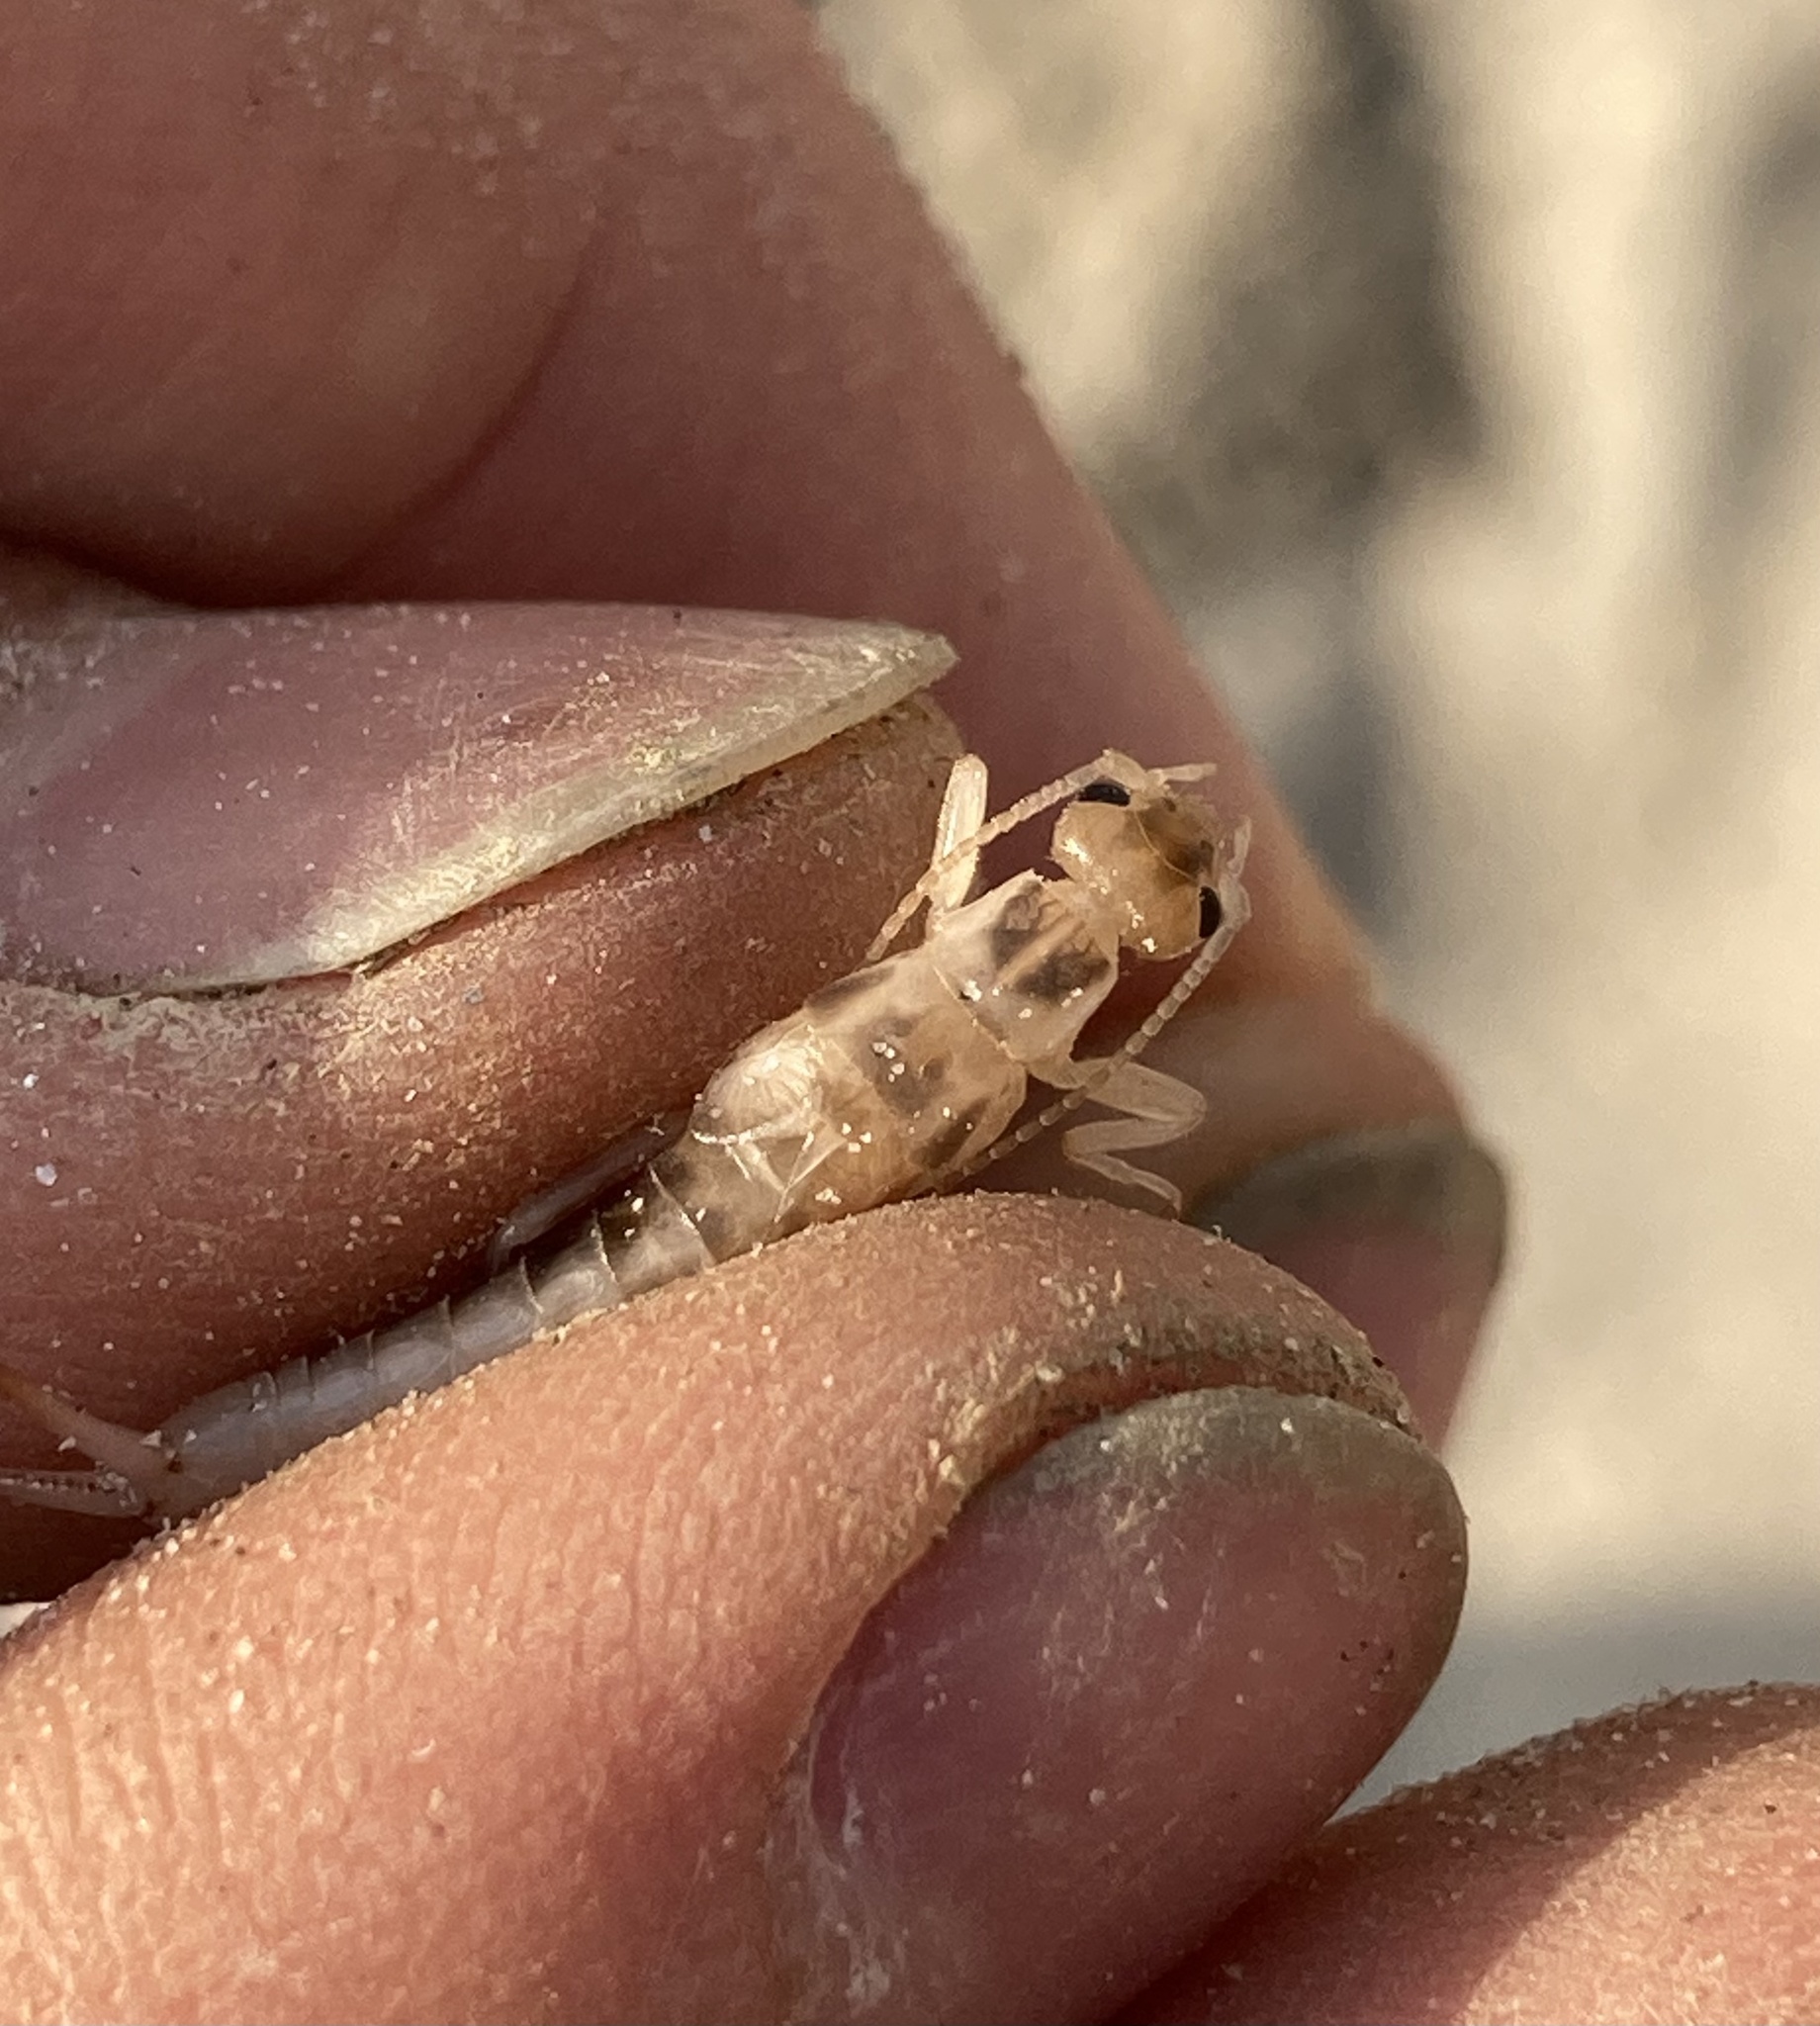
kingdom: Animalia
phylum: Arthropoda
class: Insecta
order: Dermaptera
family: Labiduridae
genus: Labidura
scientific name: Labidura riparia
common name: Striped earwig
